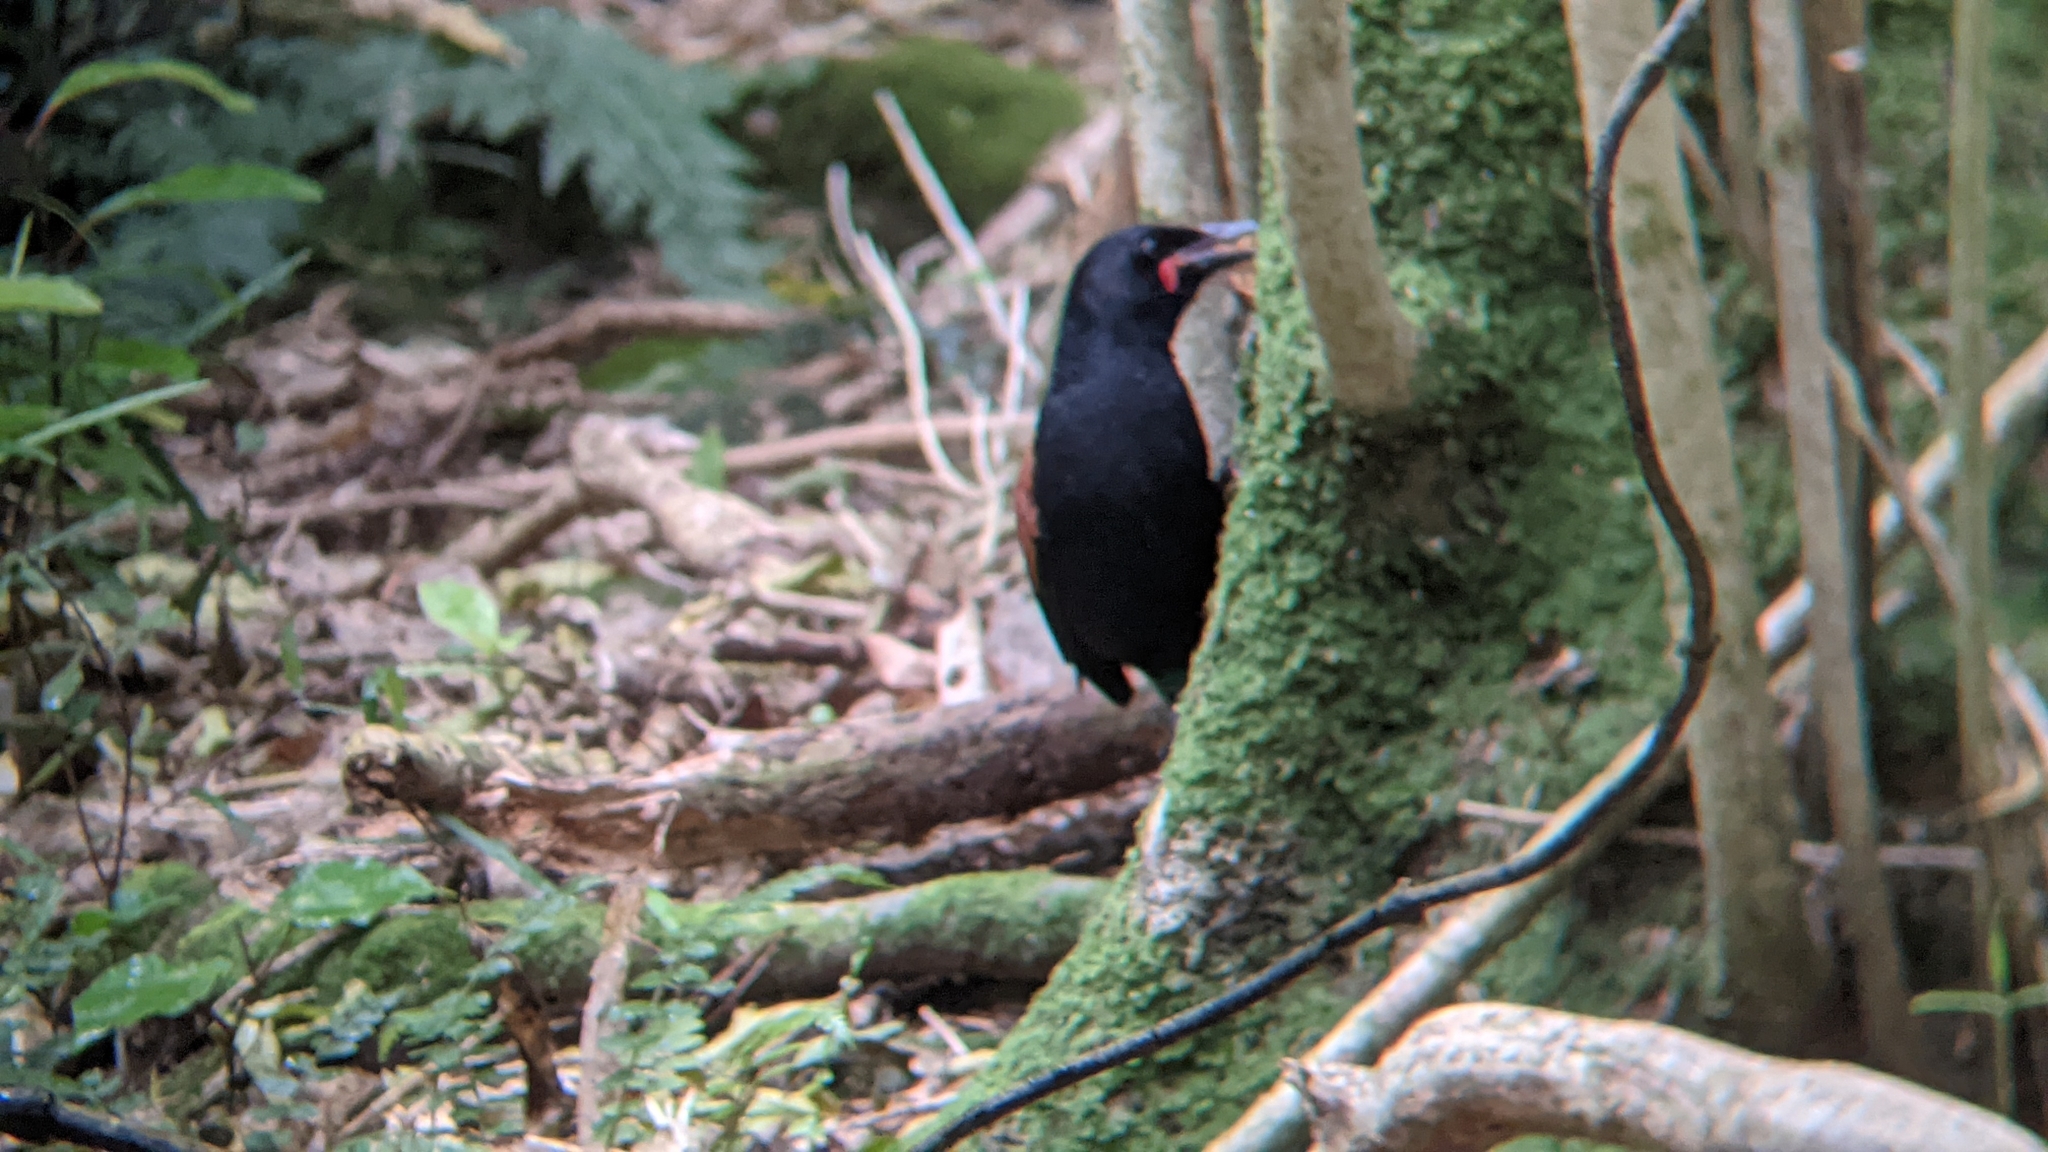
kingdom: Animalia
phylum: Chordata
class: Aves
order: Passeriformes
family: Callaeatidae
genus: Philesturnus
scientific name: Philesturnus carunculatus
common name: South island saddleback
